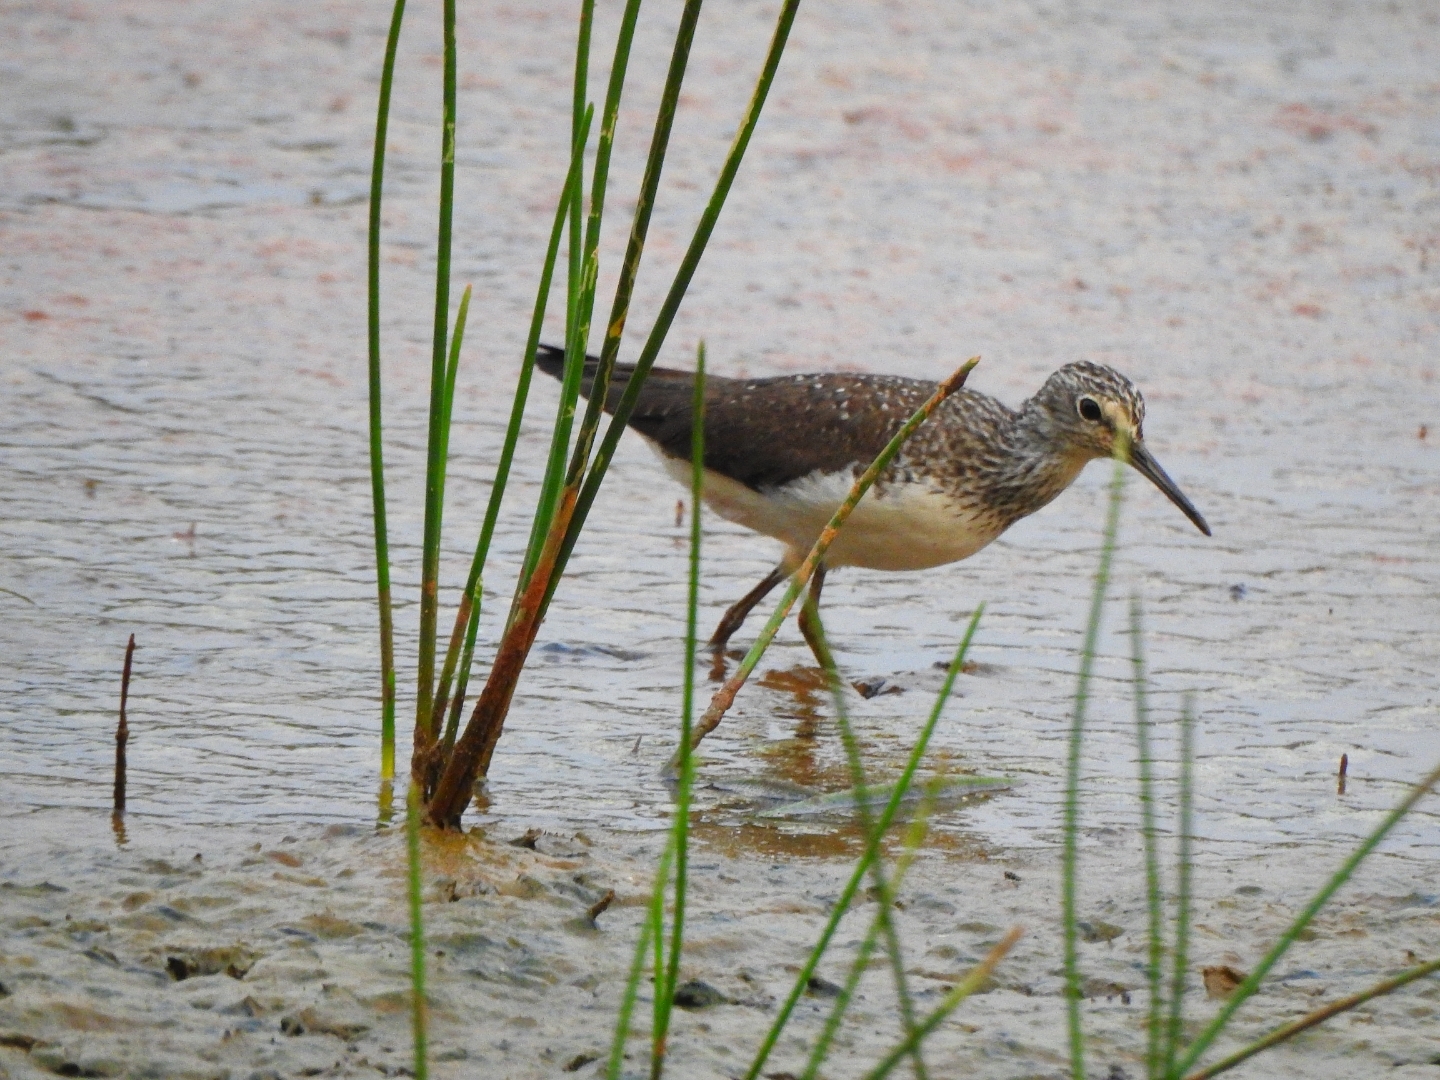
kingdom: Animalia
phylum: Chordata
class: Aves
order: Charadriiformes
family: Scolopacidae
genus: Tringa
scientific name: Tringa ochropus
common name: Green sandpiper
